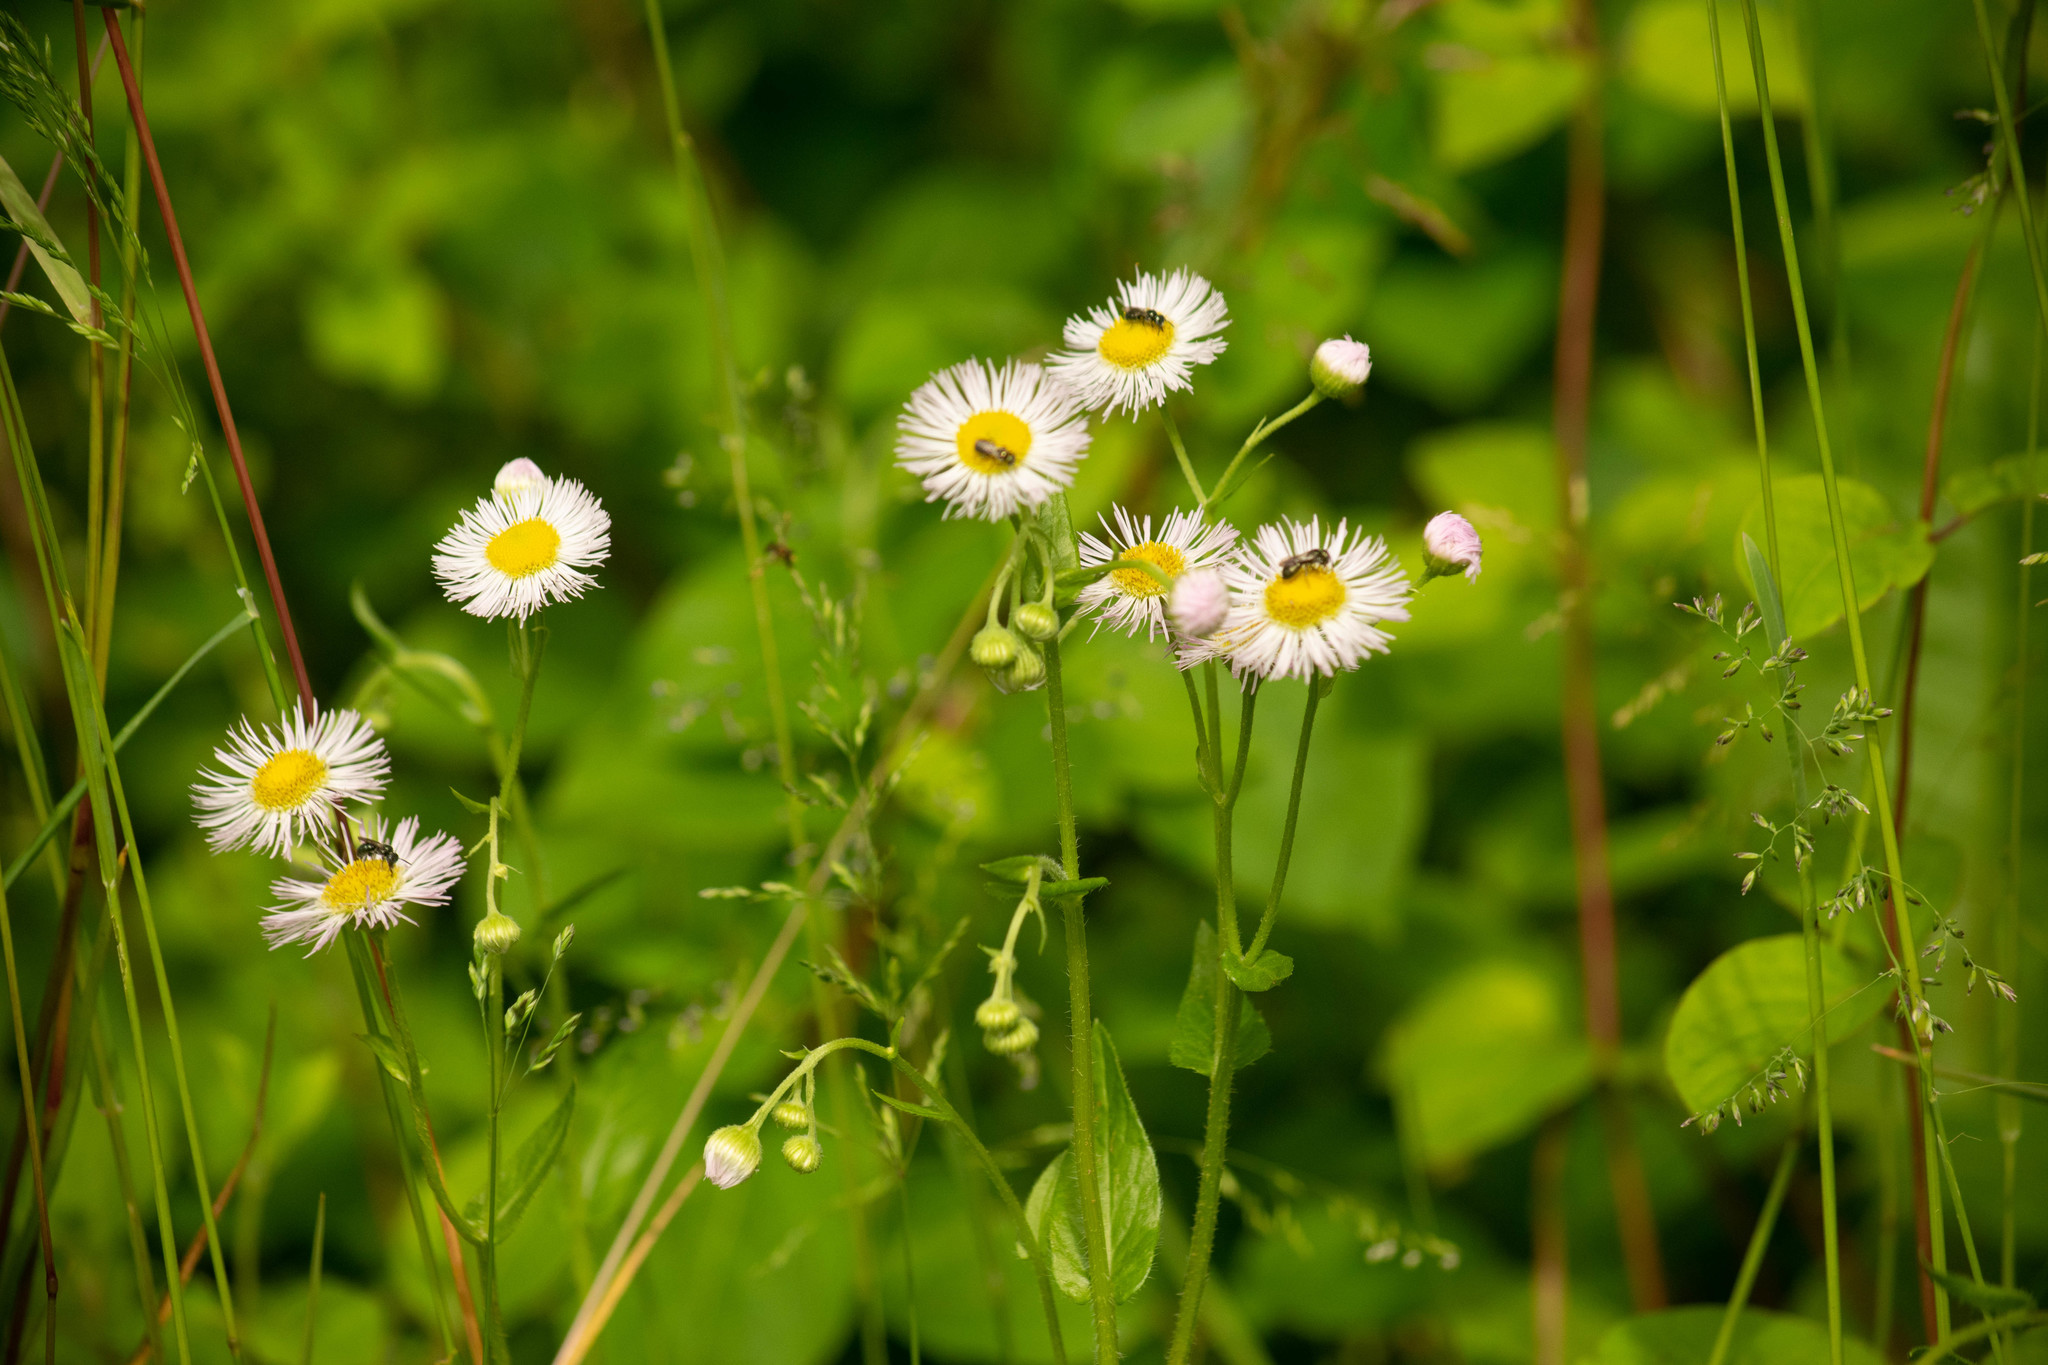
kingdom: Plantae
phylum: Tracheophyta
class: Magnoliopsida
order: Asterales
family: Asteraceae
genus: Erigeron
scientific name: Erigeron philadelphicus
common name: Robin's-plantain
